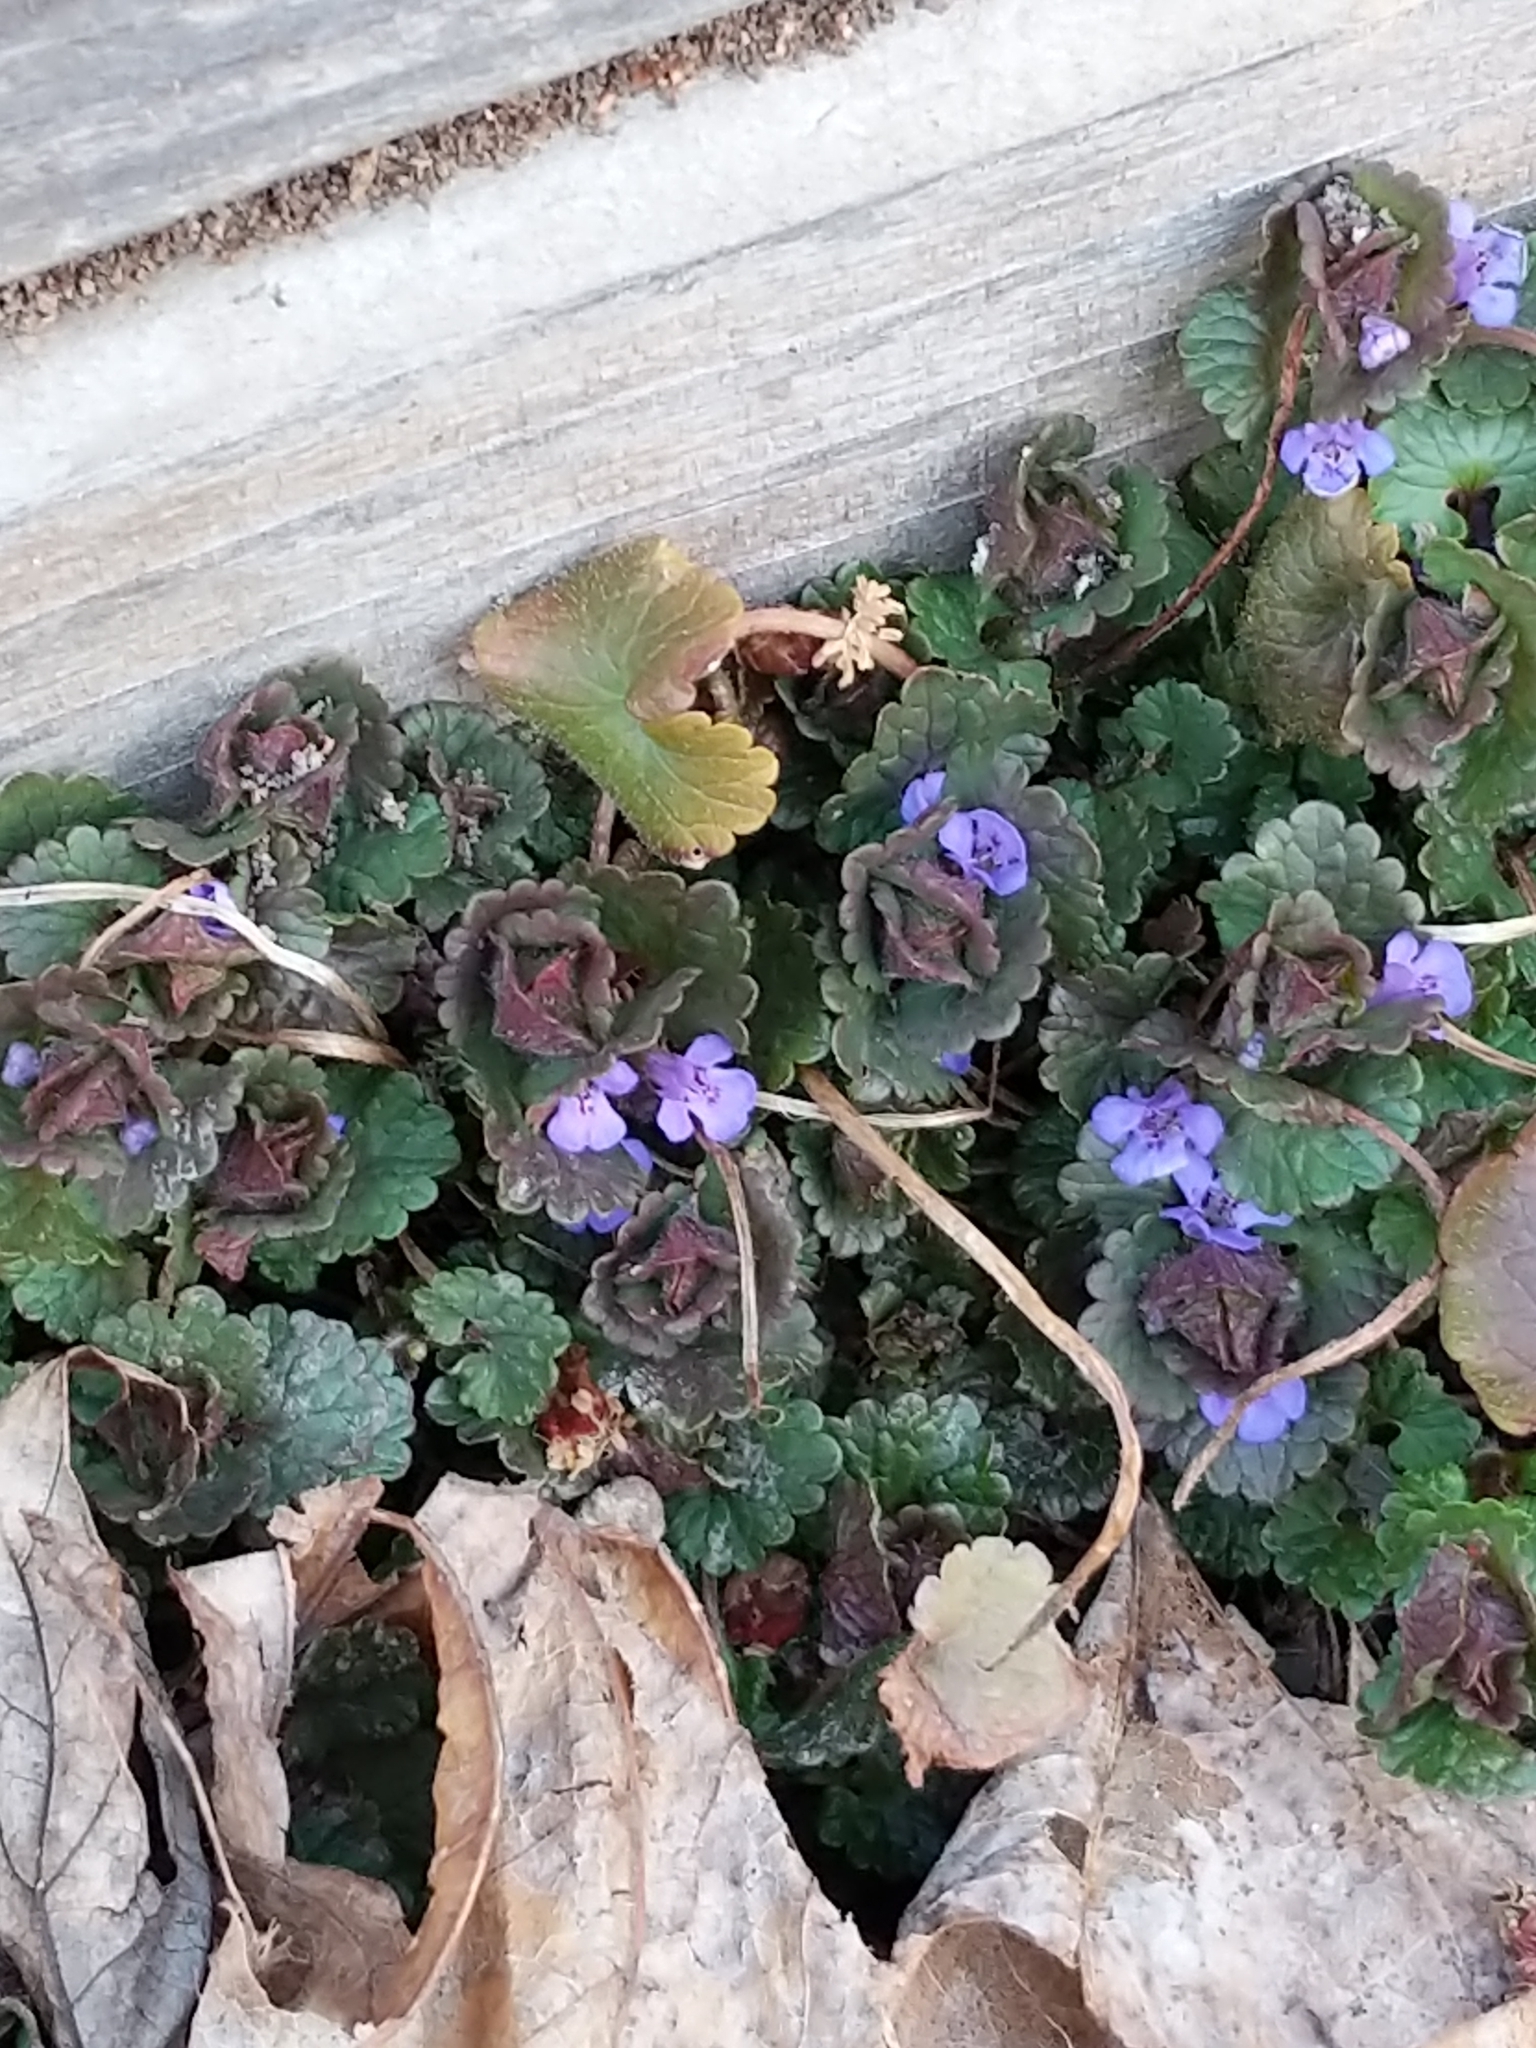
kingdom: Plantae
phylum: Tracheophyta
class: Magnoliopsida
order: Lamiales
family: Lamiaceae
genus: Glechoma
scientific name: Glechoma hederacea
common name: Ground ivy
